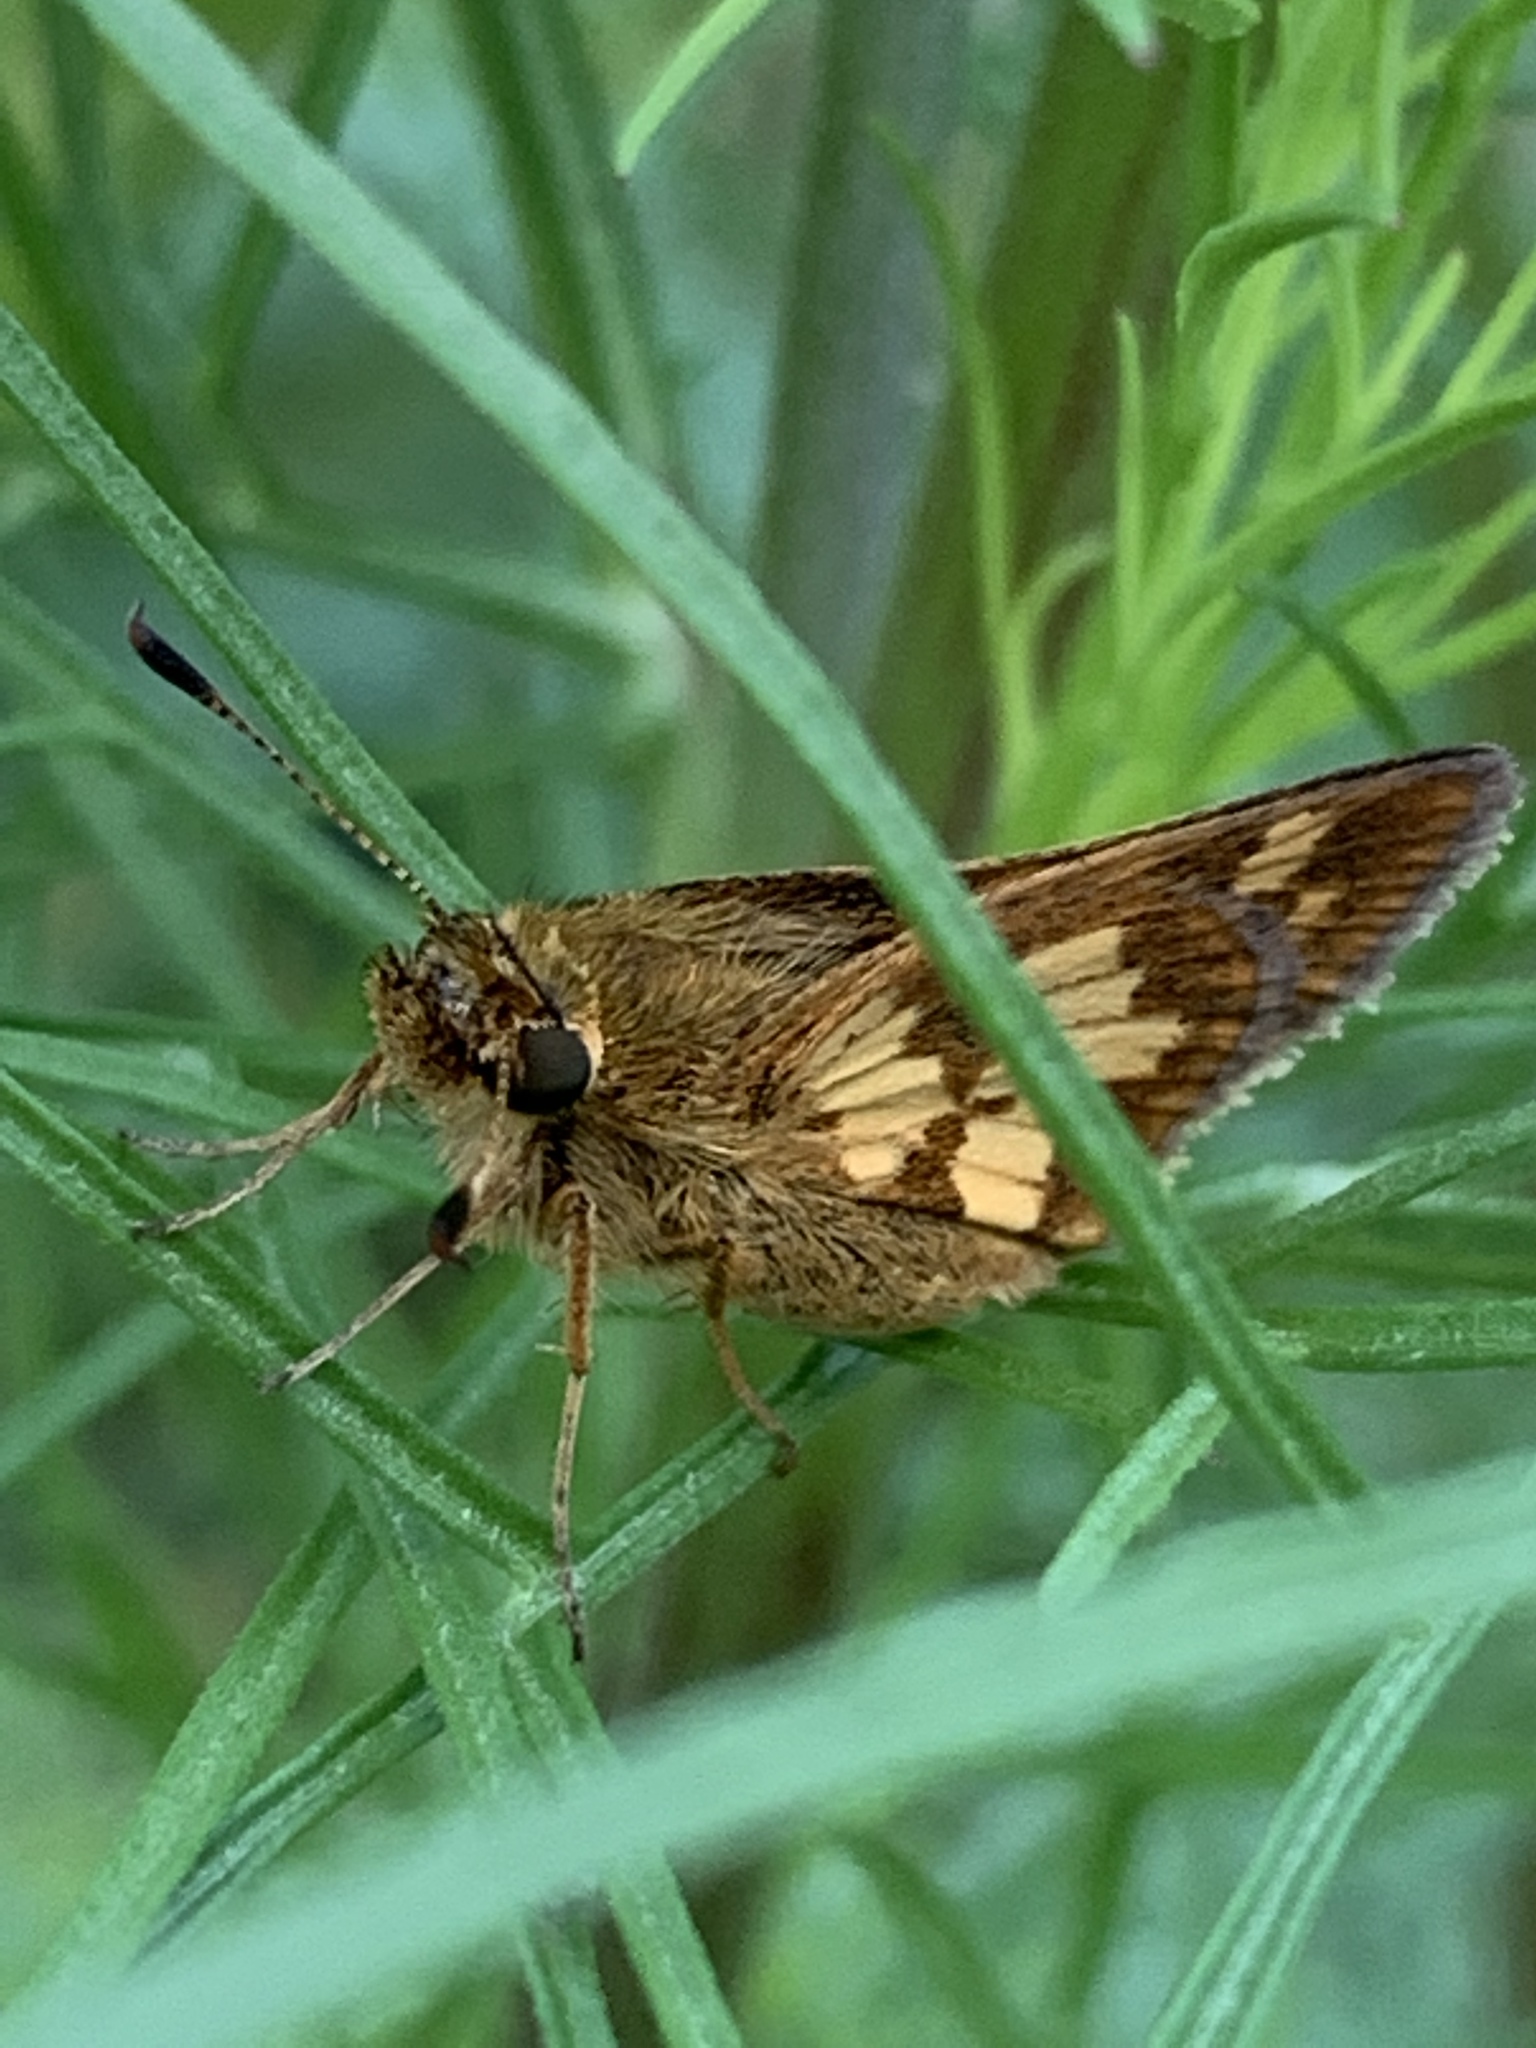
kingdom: Animalia
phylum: Arthropoda
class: Insecta
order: Lepidoptera
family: Hesperiidae
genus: Polites
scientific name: Polites coras
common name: Peck's skipper
